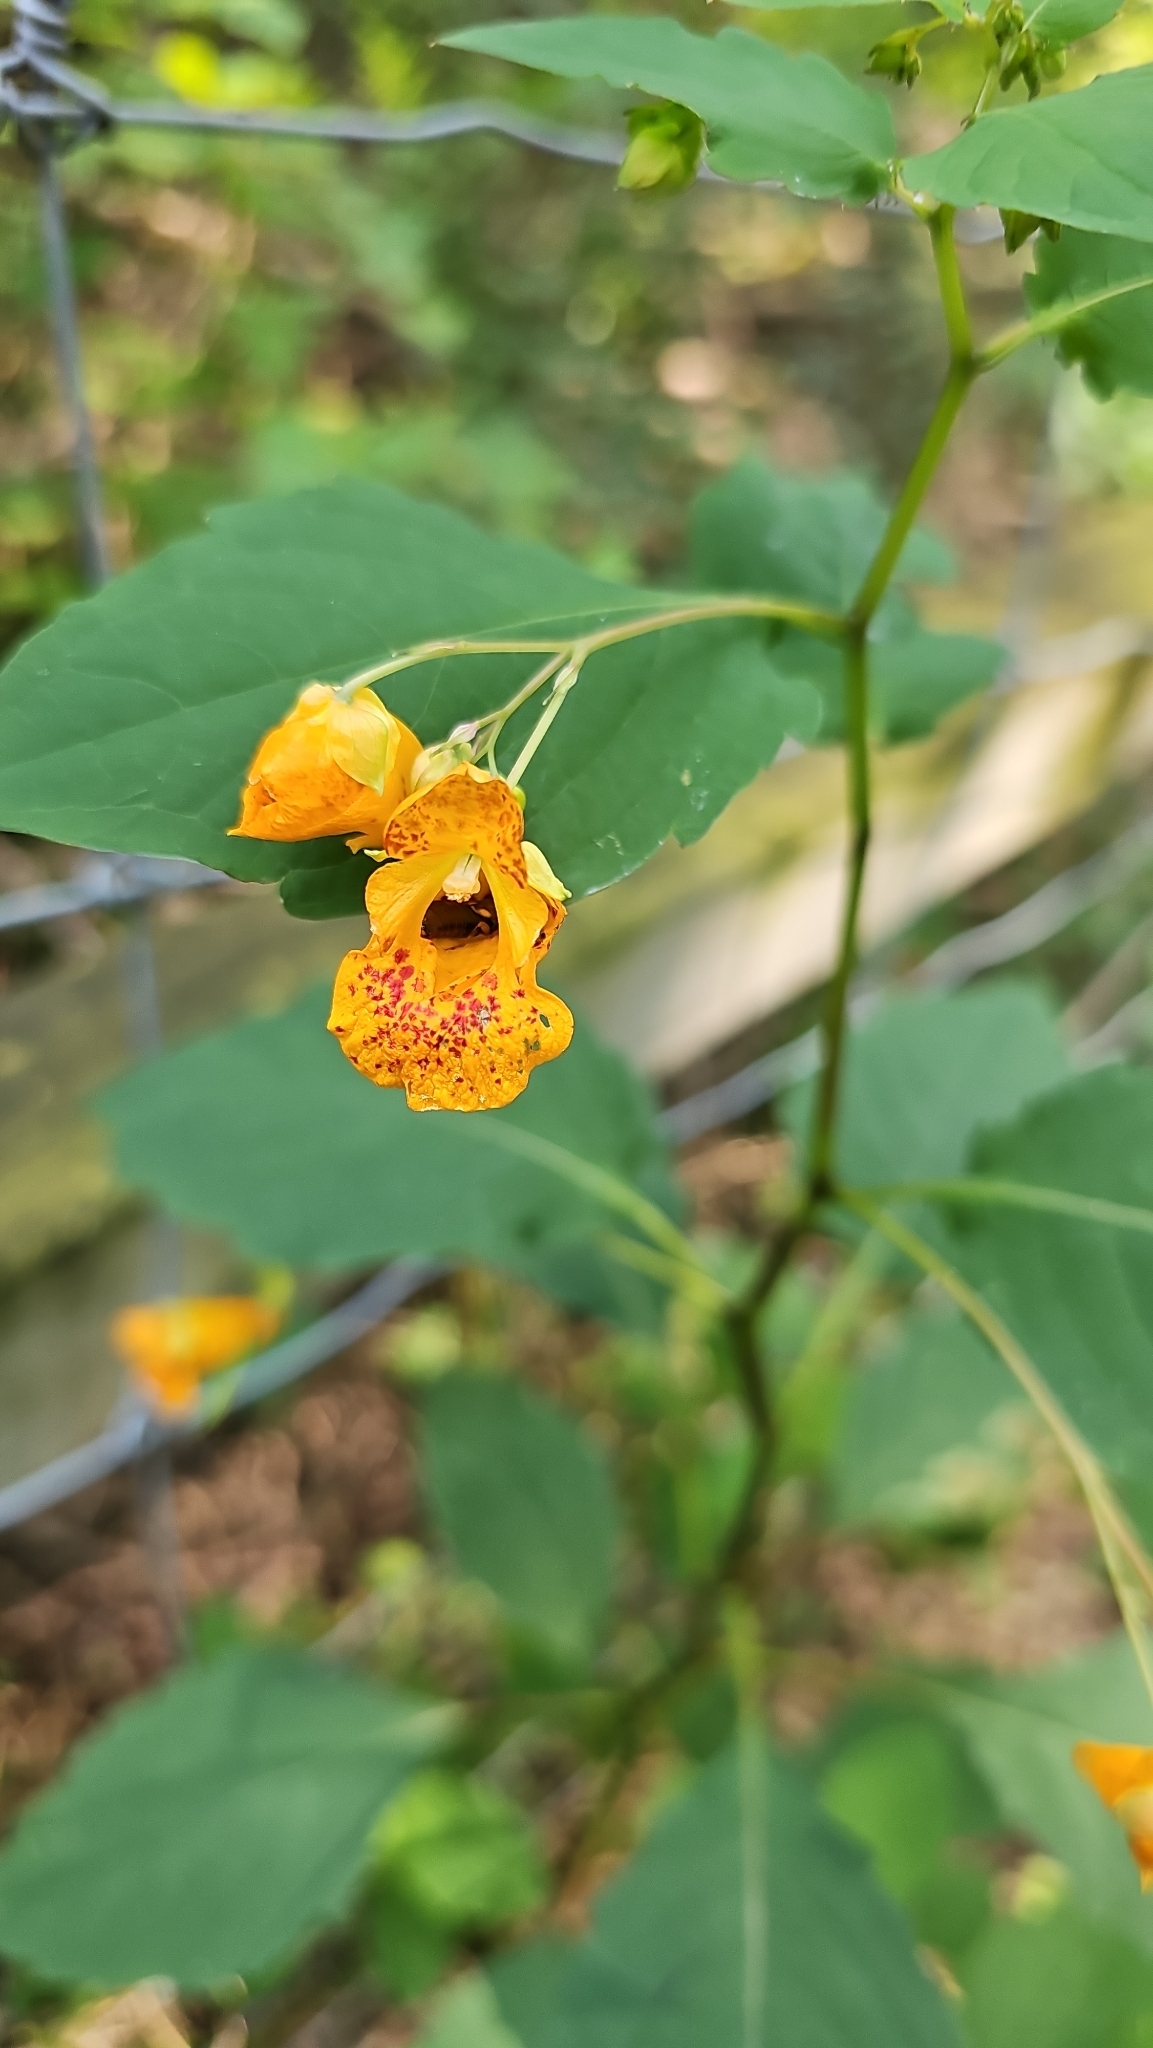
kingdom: Plantae
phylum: Tracheophyta
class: Magnoliopsida
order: Ericales
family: Balsaminaceae
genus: Impatiens
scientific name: Impatiens capensis
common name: Orange balsam
